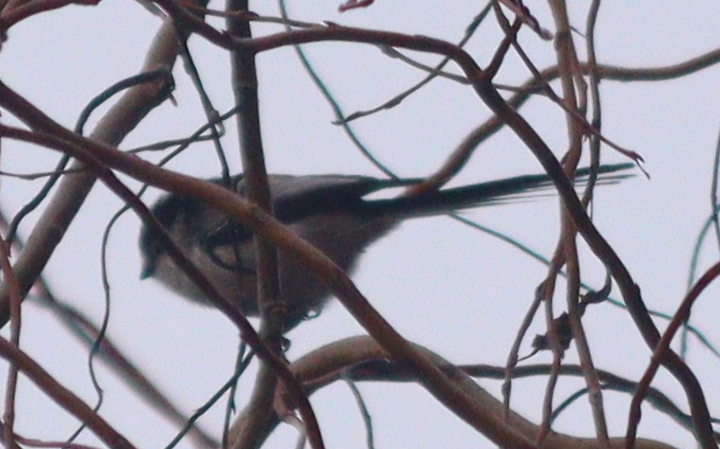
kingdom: Animalia
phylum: Chordata
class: Aves
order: Passeriformes
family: Aegithalidae
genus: Aegithalos
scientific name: Aegithalos caudatus
